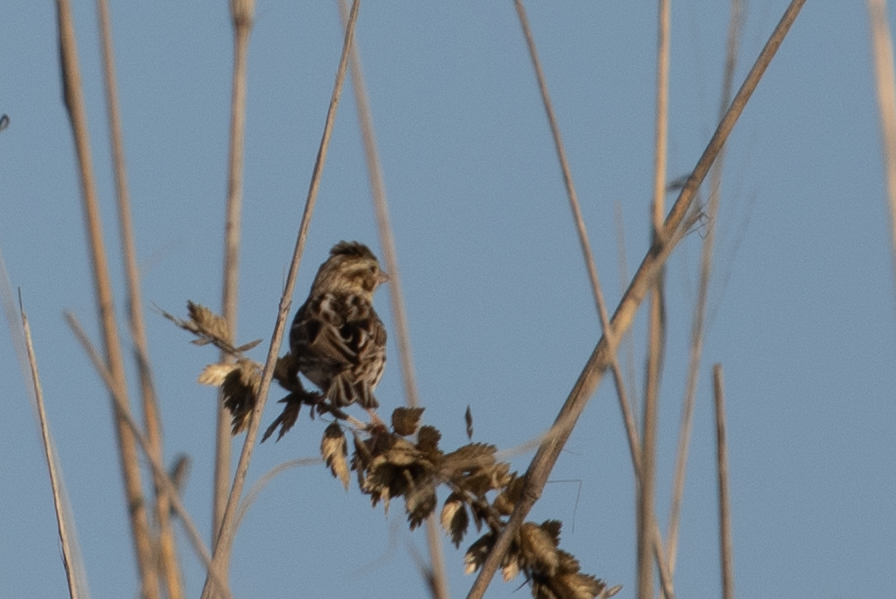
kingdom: Animalia
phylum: Chordata
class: Aves
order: Passeriformes
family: Passerellidae
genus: Passerculus
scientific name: Passerculus sandwichensis
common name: Savannah sparrow
